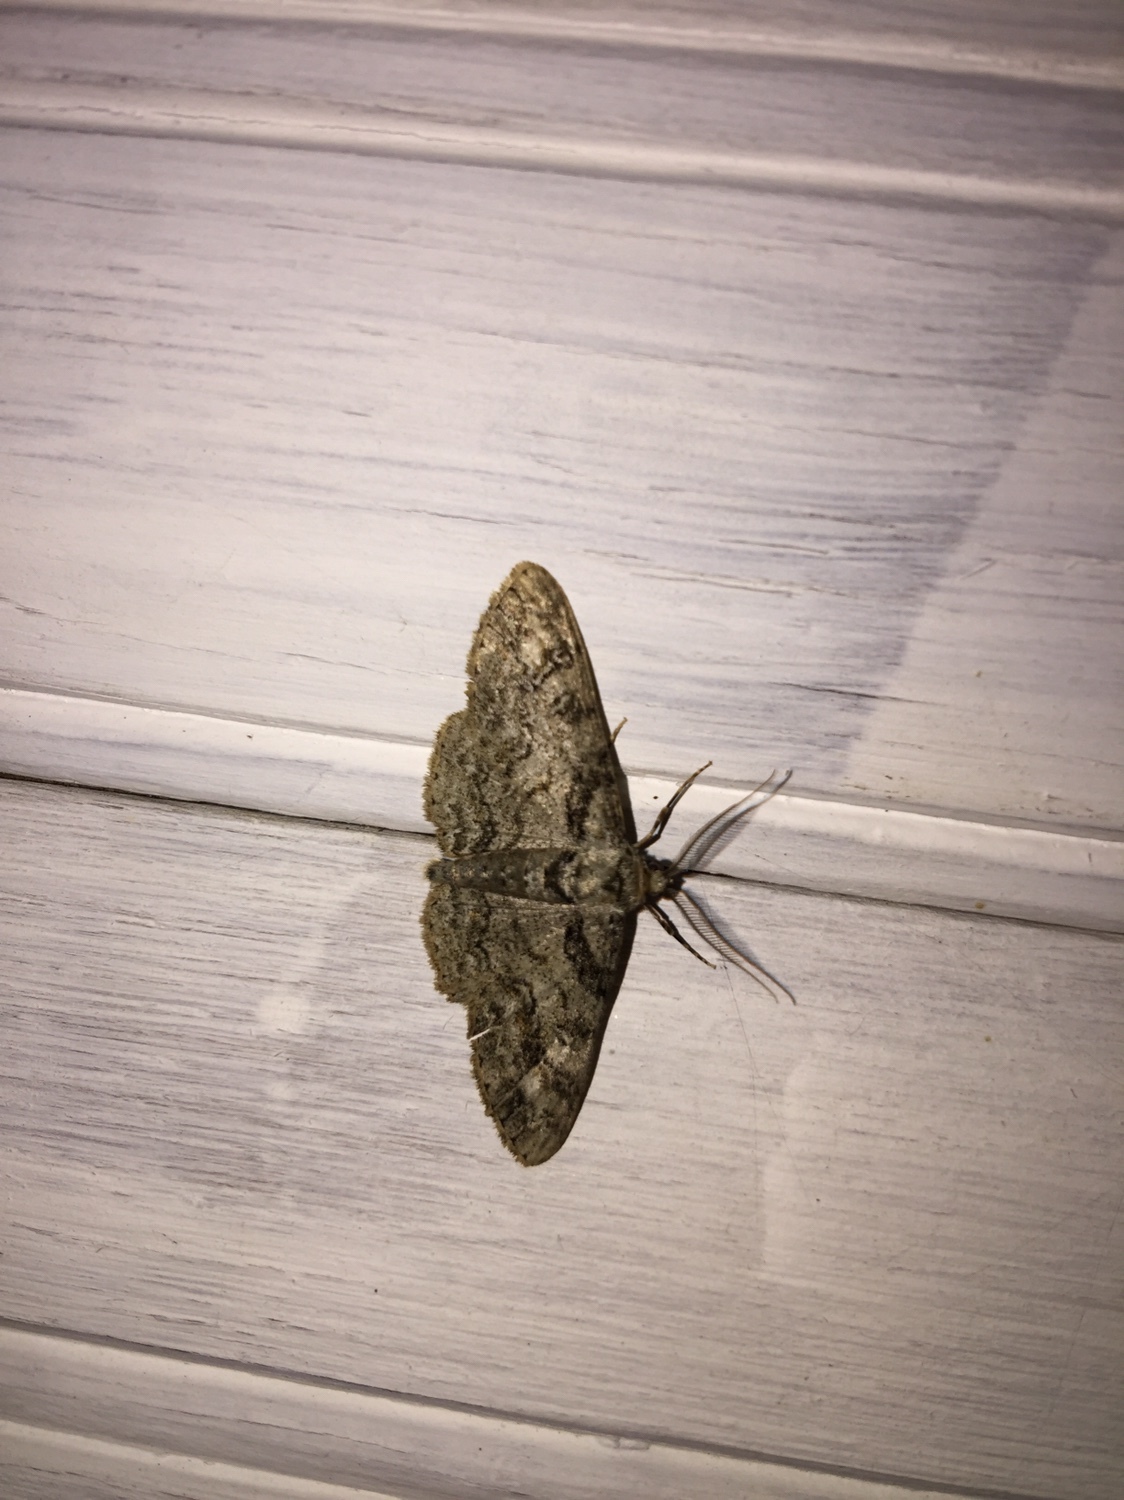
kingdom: Animalia
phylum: Arthropoda
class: Insecta
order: Lepidoptera
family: Geometridae
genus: Cleora
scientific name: Cleora sublunaria
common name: Double-lined gray
